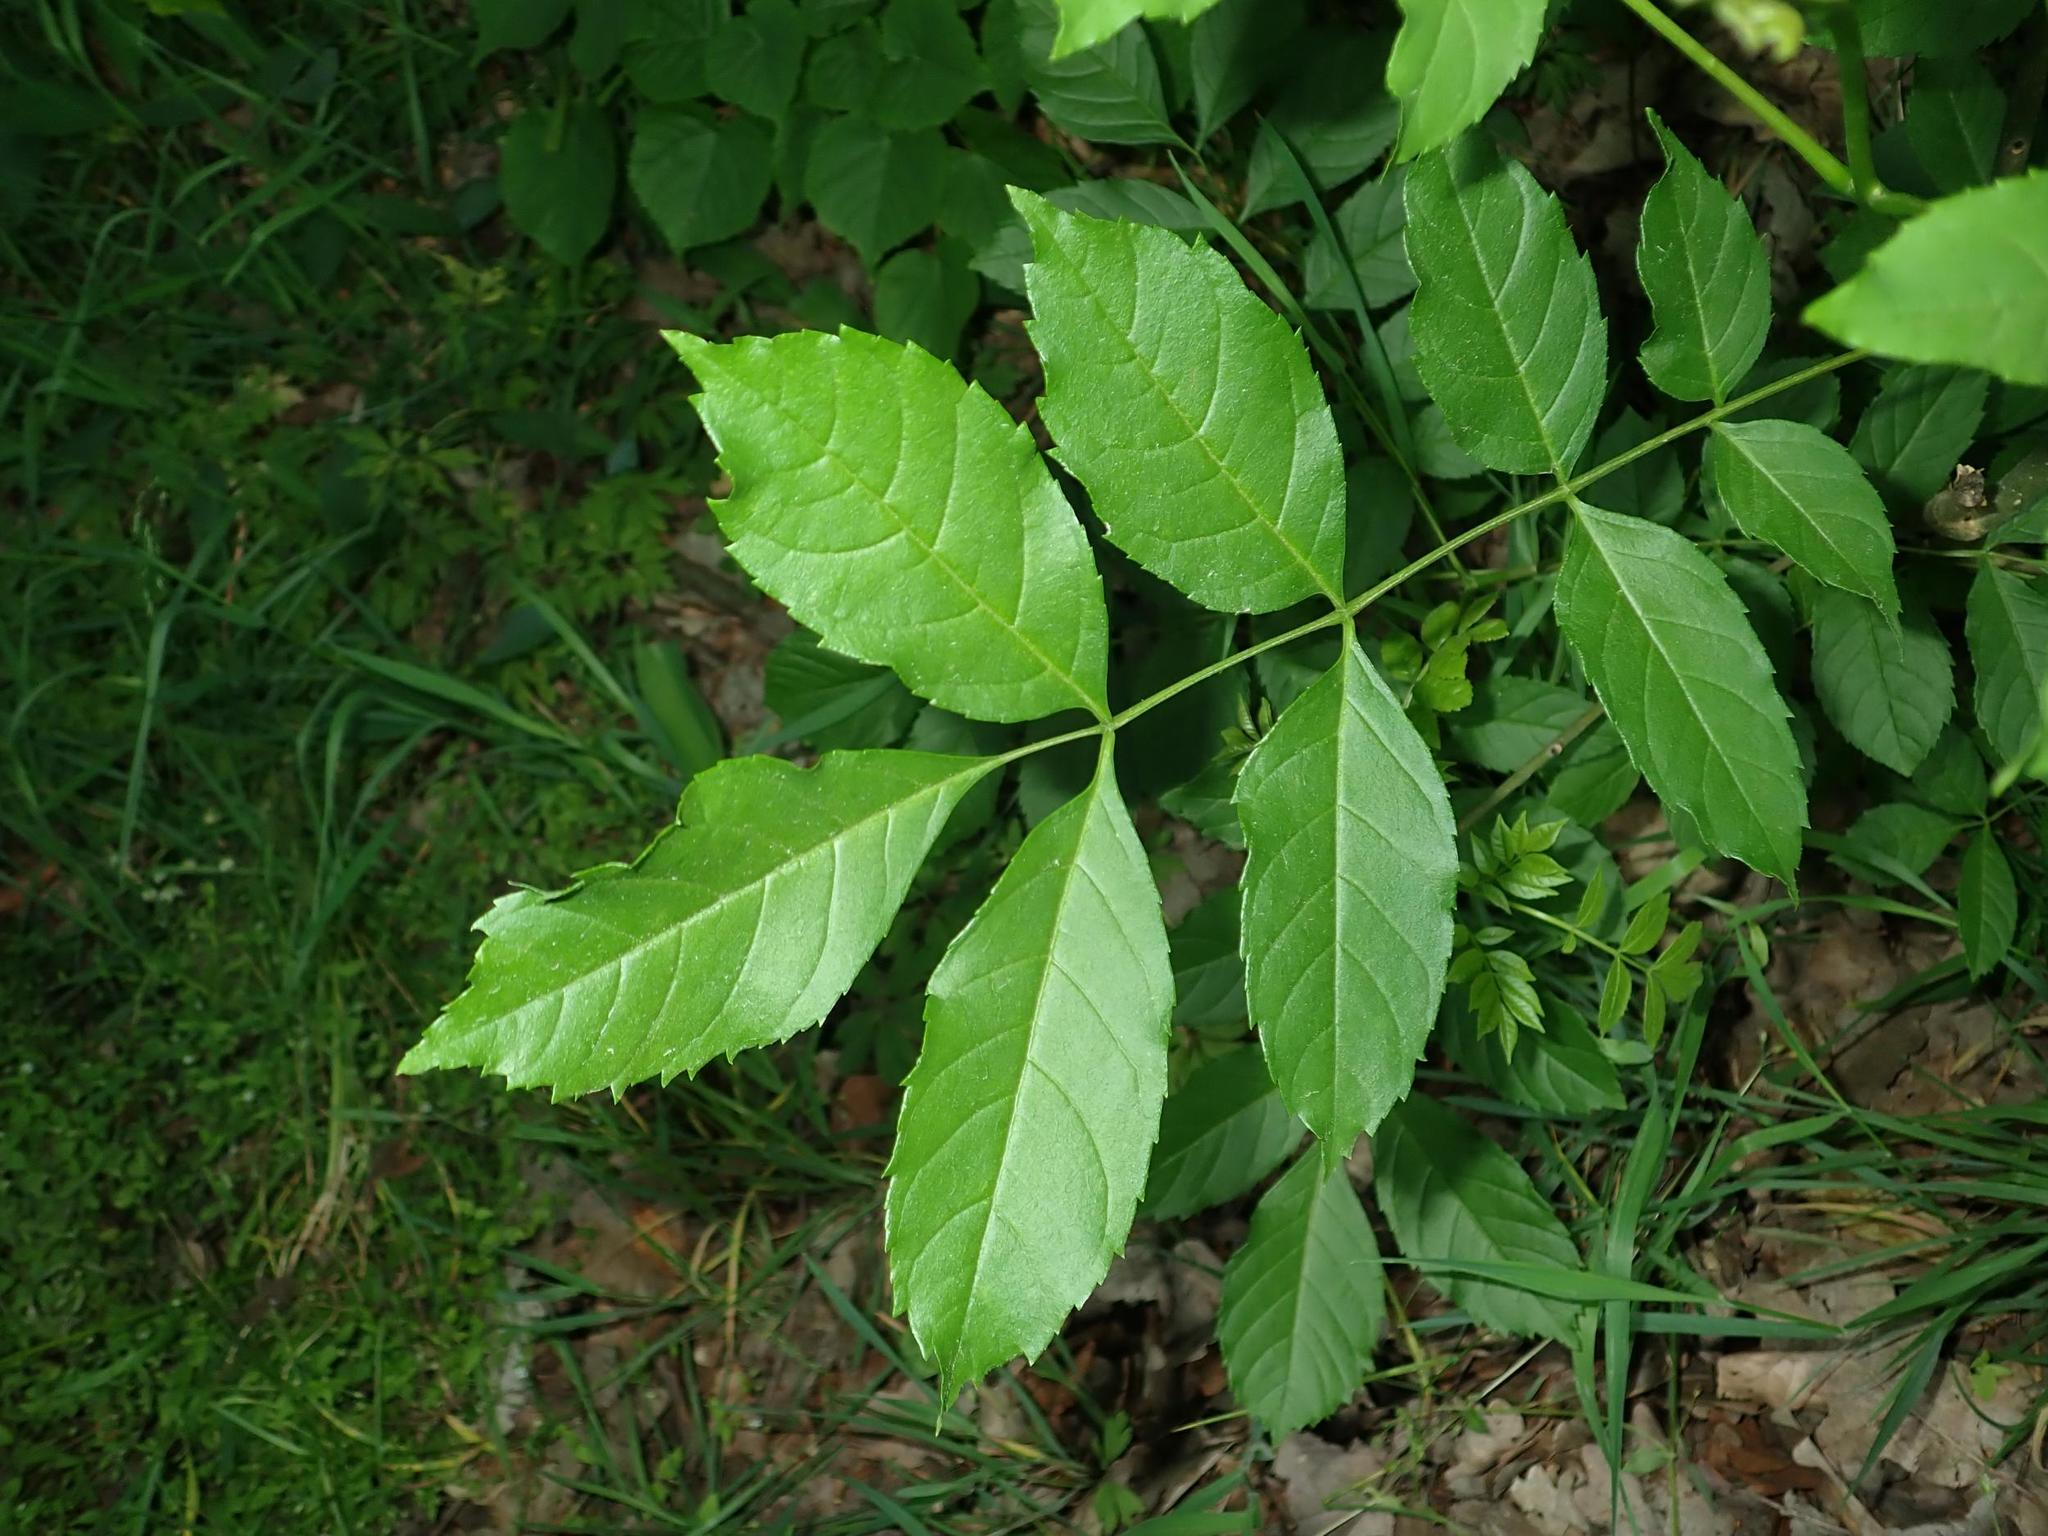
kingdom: Plantae
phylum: Tracheophyta
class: Magnoliopsida
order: Lamiales
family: Oleaceae
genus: Fraxinus
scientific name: Fraxinus excelsior
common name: European ash
